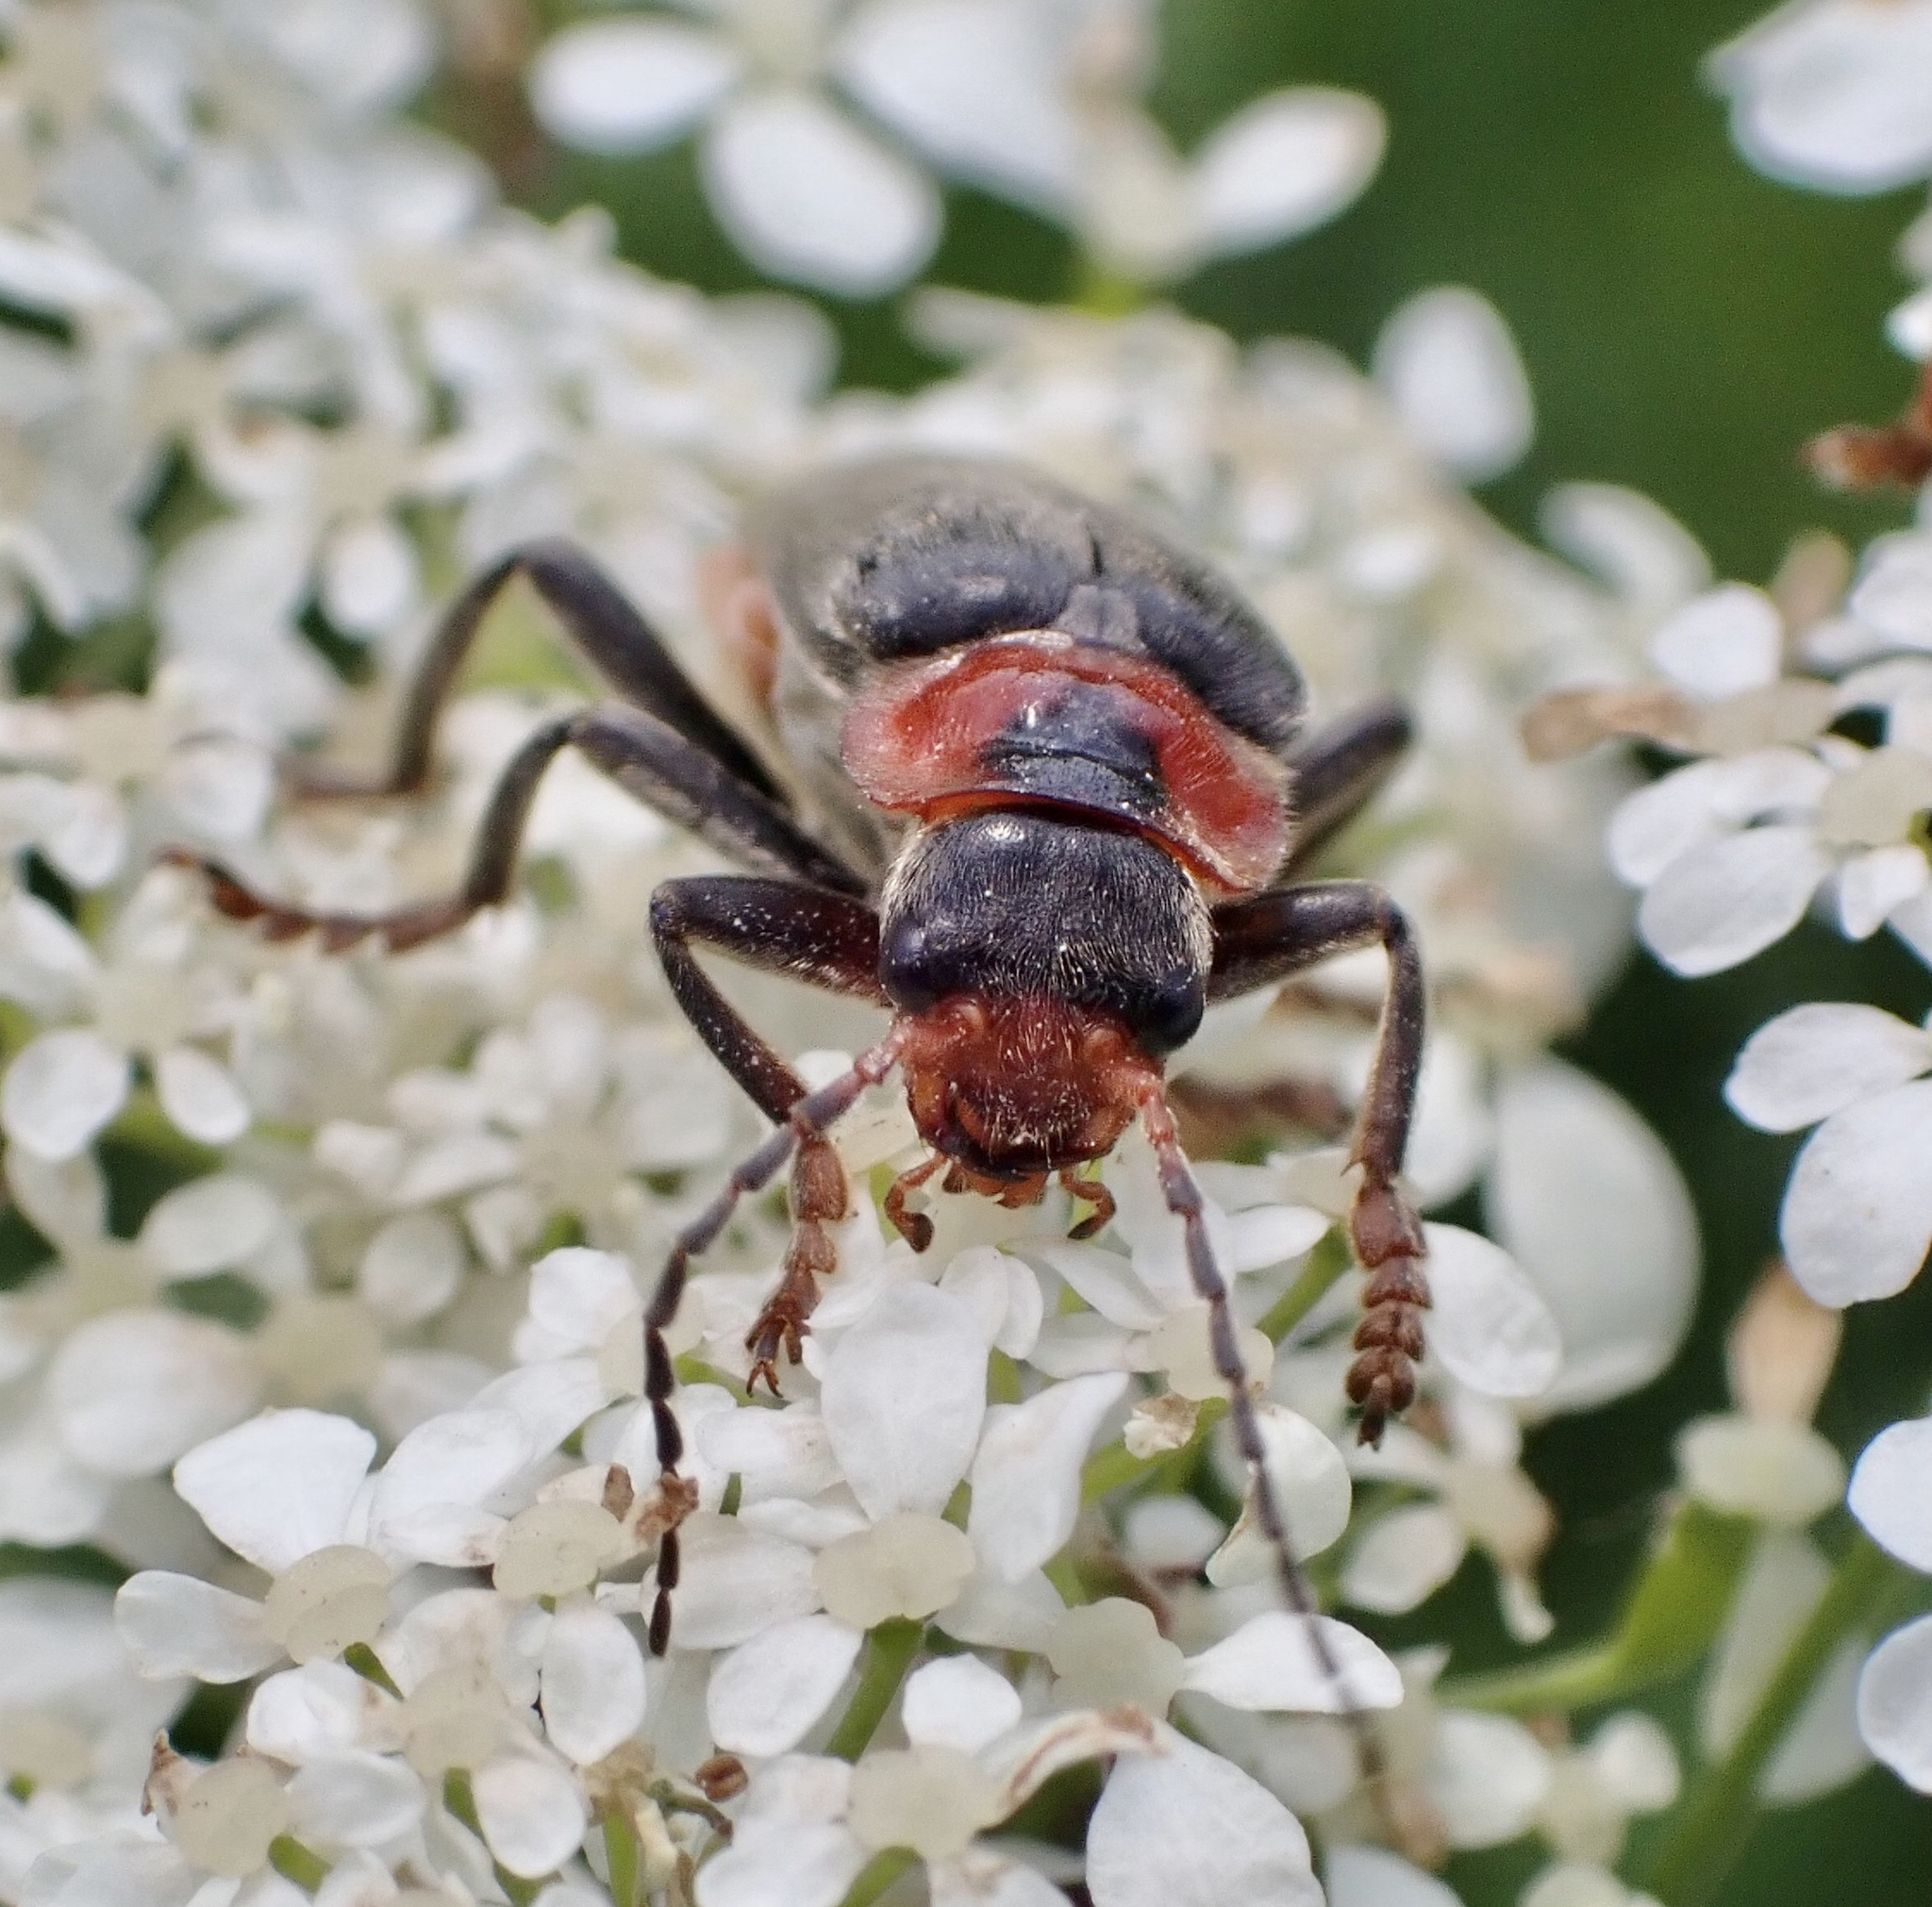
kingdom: Animalia
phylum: Arthropoda
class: Insecta
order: Coleoptera
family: Cantharidae
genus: Cantharis
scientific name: Cantharis fusca
